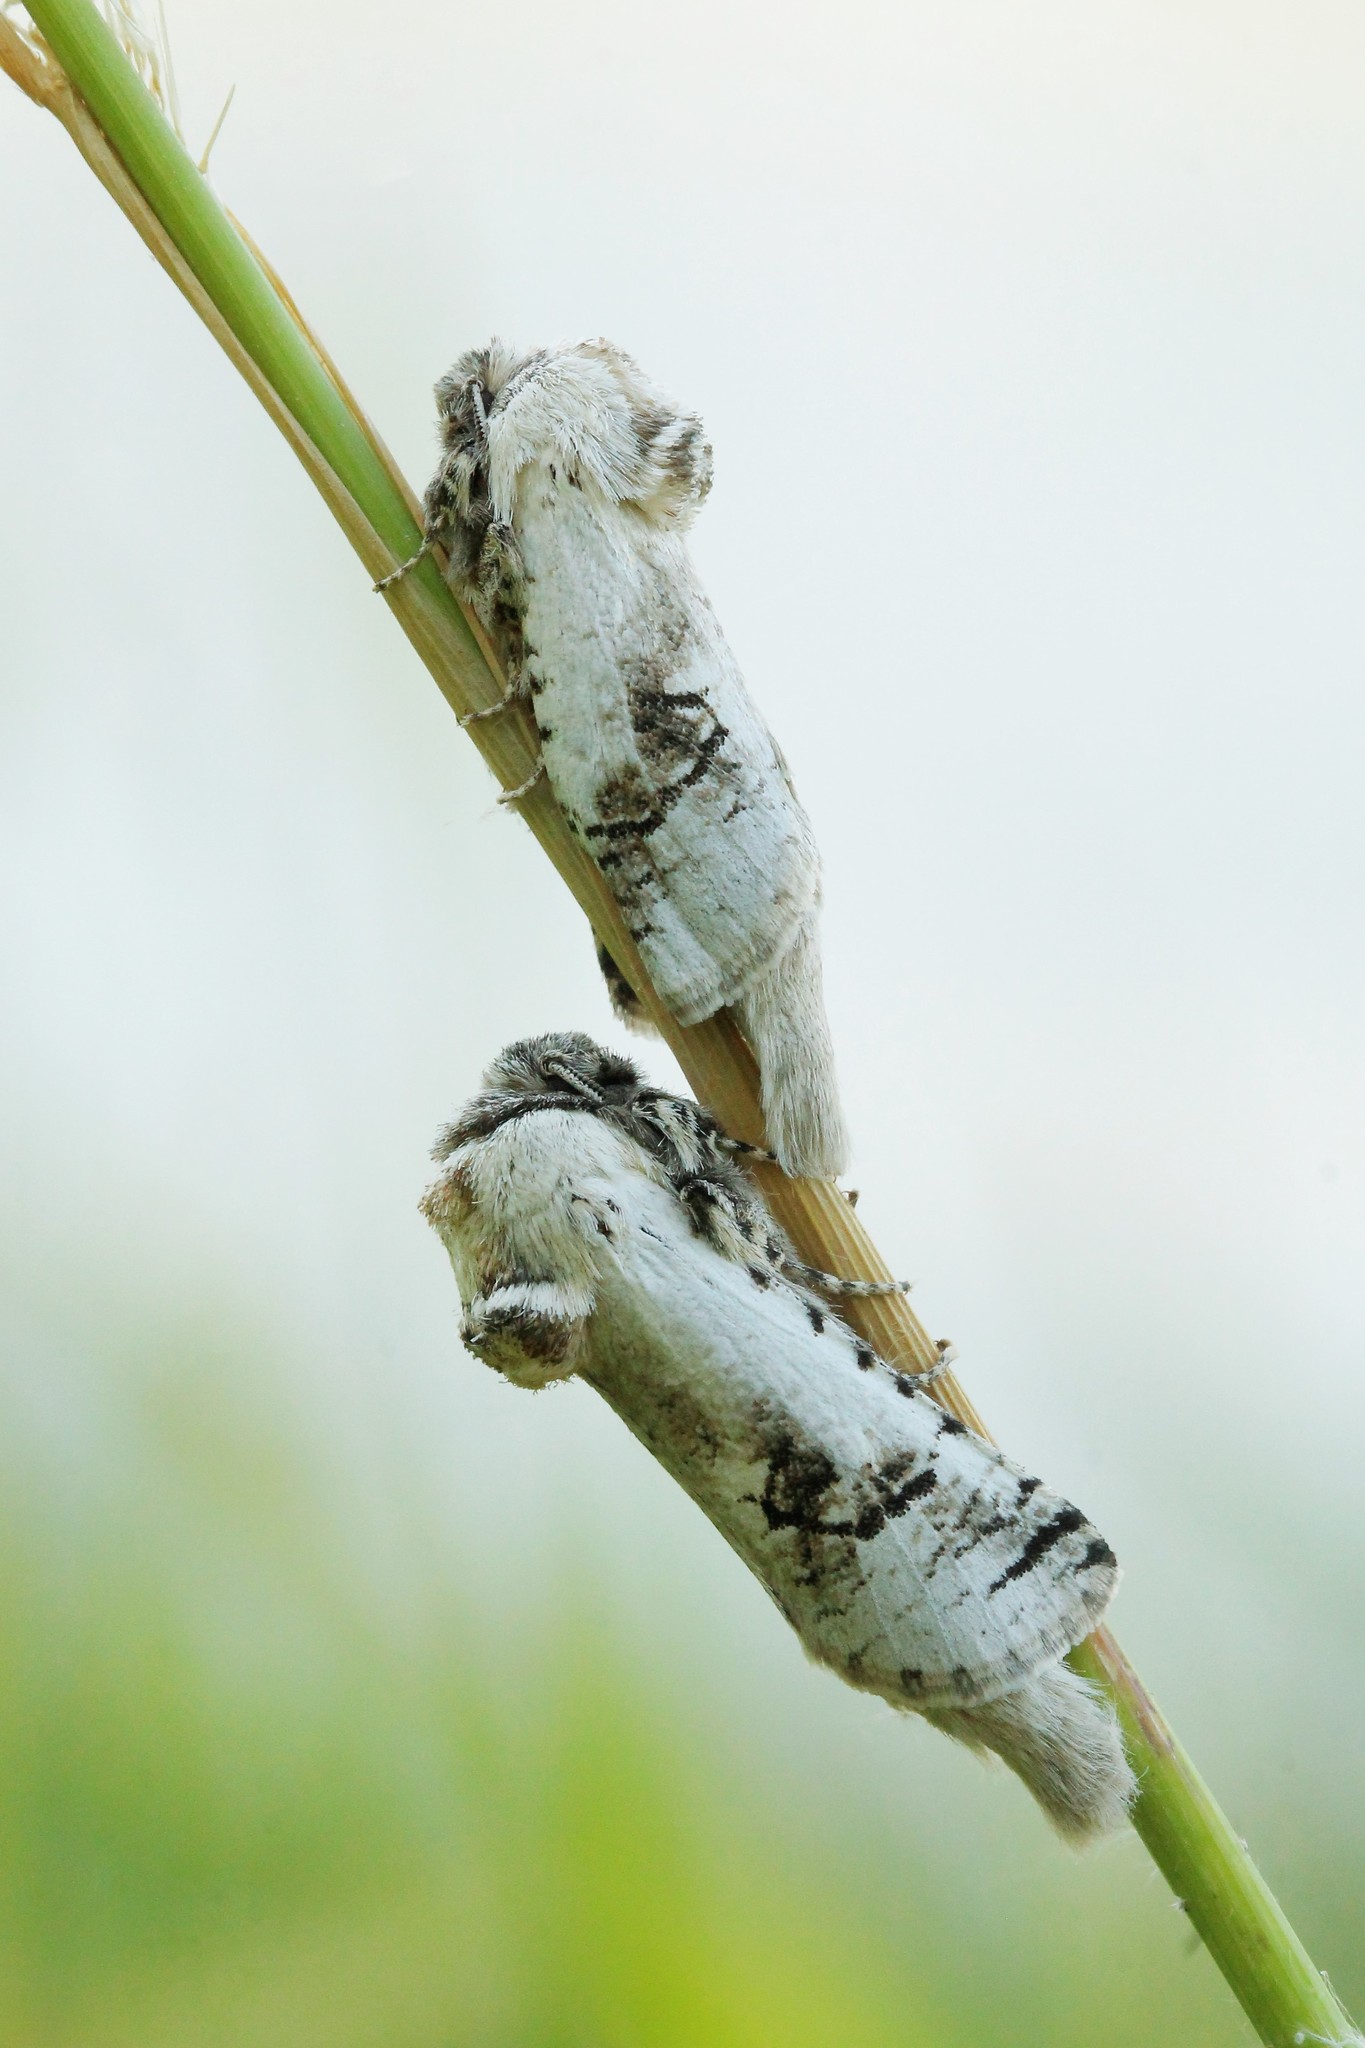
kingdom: Animalia
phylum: Arthropoda
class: Insecta
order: Lepidoptera
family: Cossidae
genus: Parahypopta
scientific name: Parahypopta caestrum
